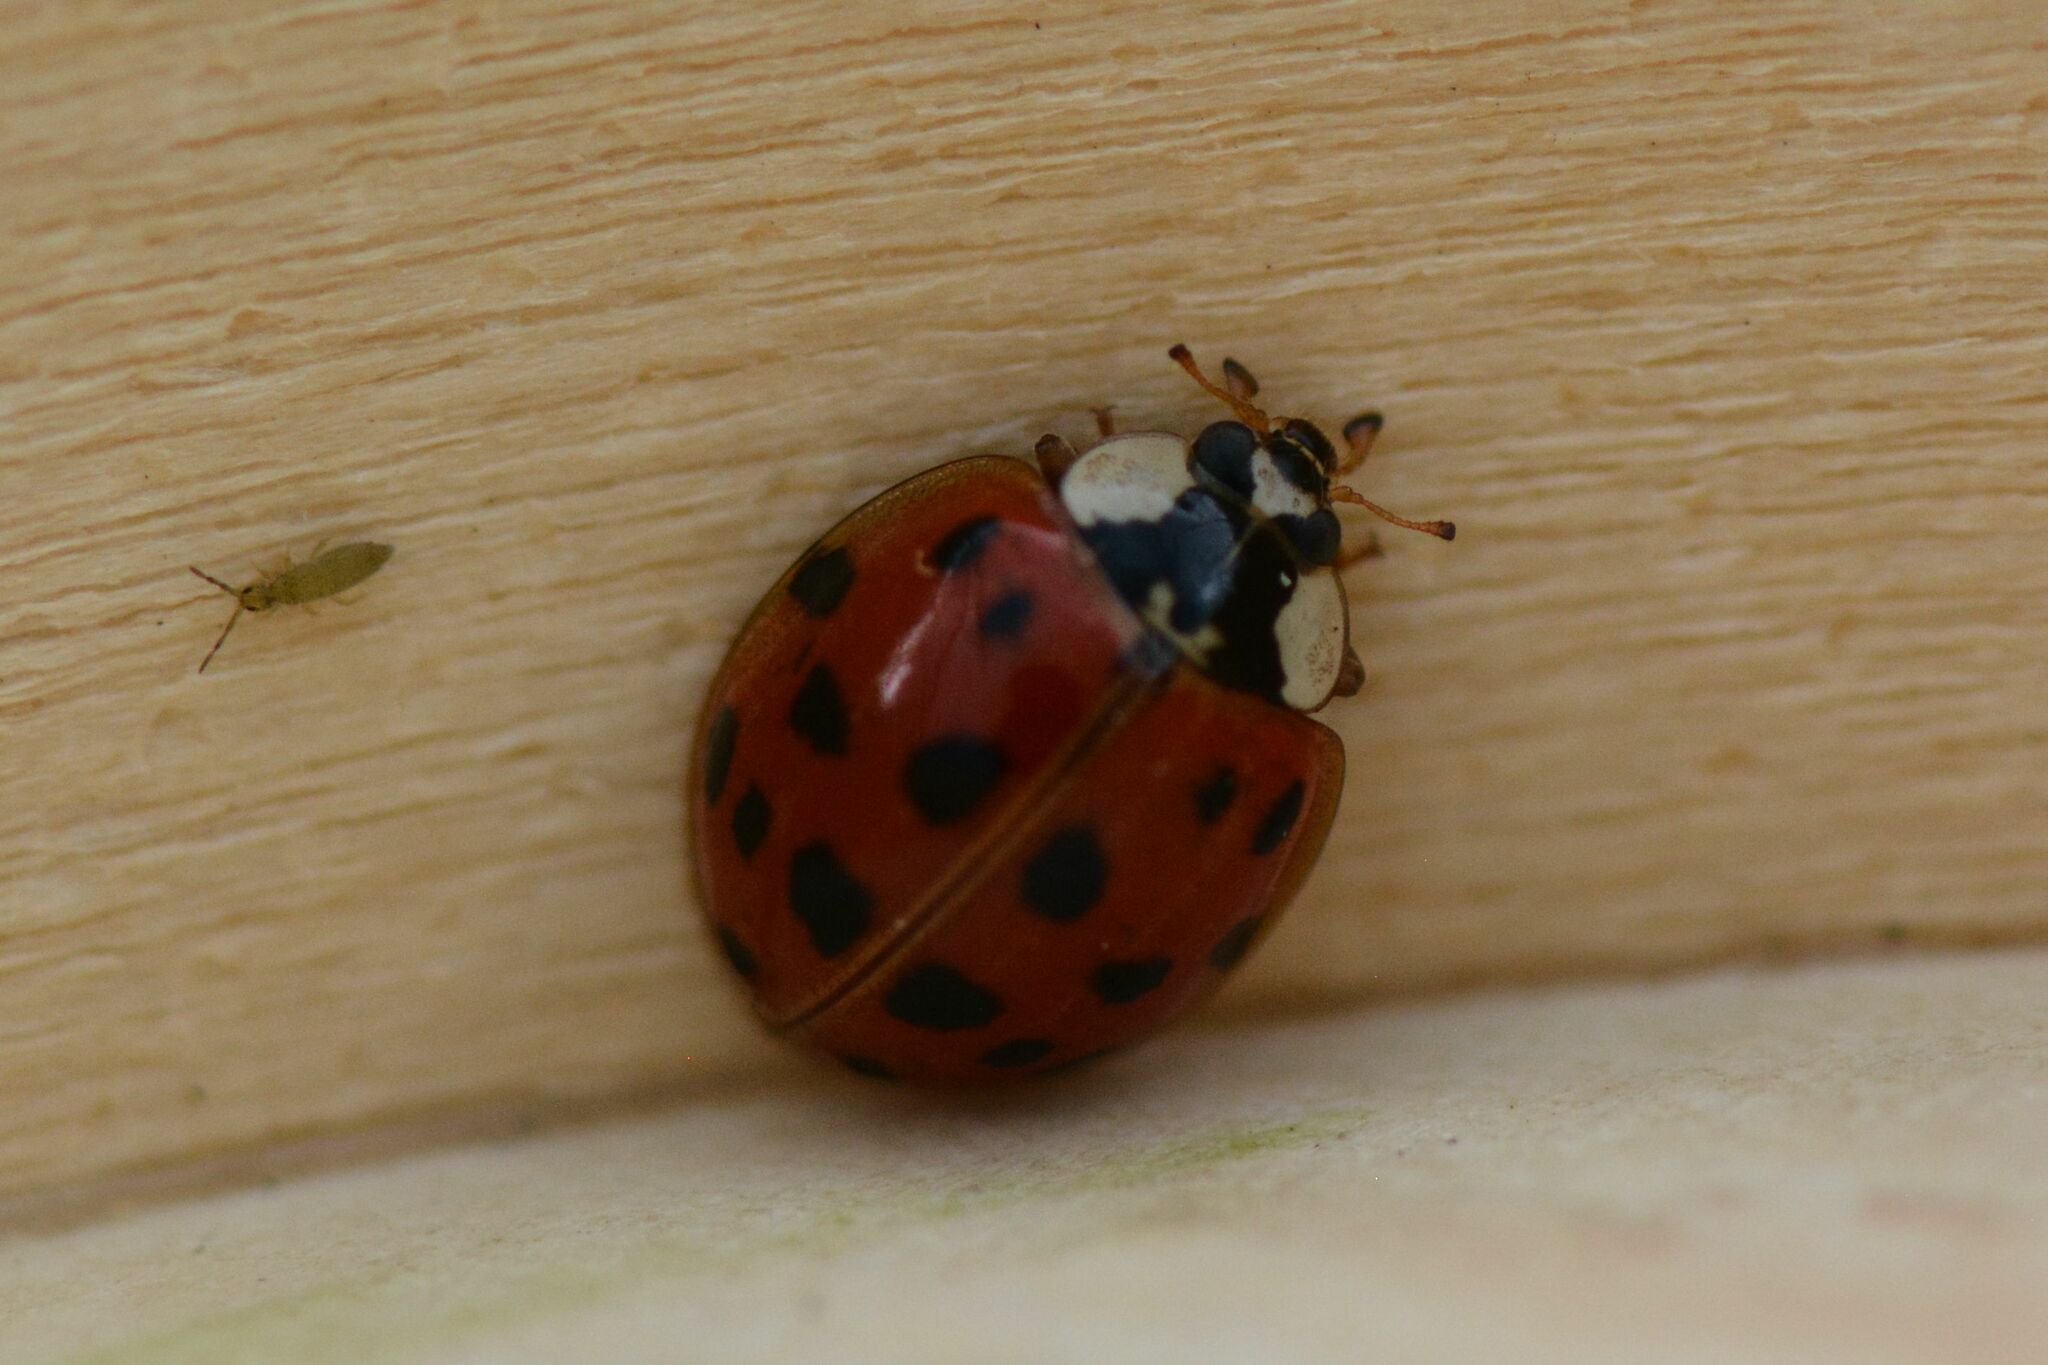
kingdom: Animalia
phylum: Arthropoda
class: Insecta
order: Coleoptera
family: Coccinellidae
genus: Harmonia
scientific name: Harmonia axyridis
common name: Harlequin ladybird
